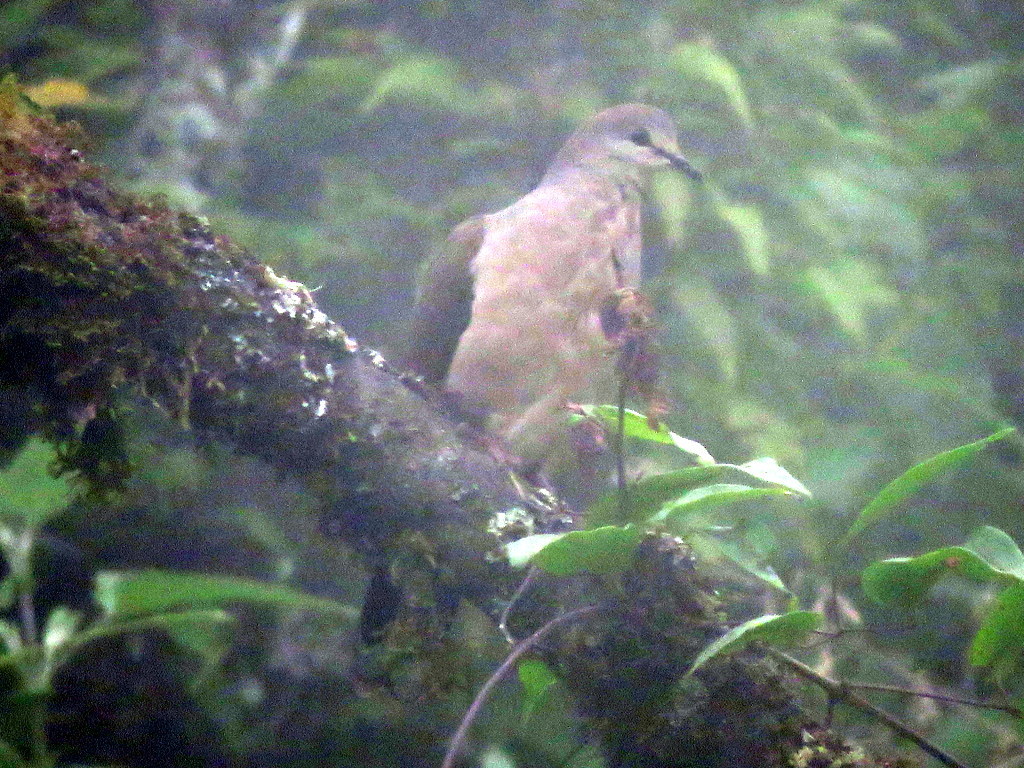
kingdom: Animalia
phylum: Chordata
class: Aves
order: Columbiformes
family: Columbidae
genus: Leptotila
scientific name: Leptotila megalura
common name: Yungas dove
